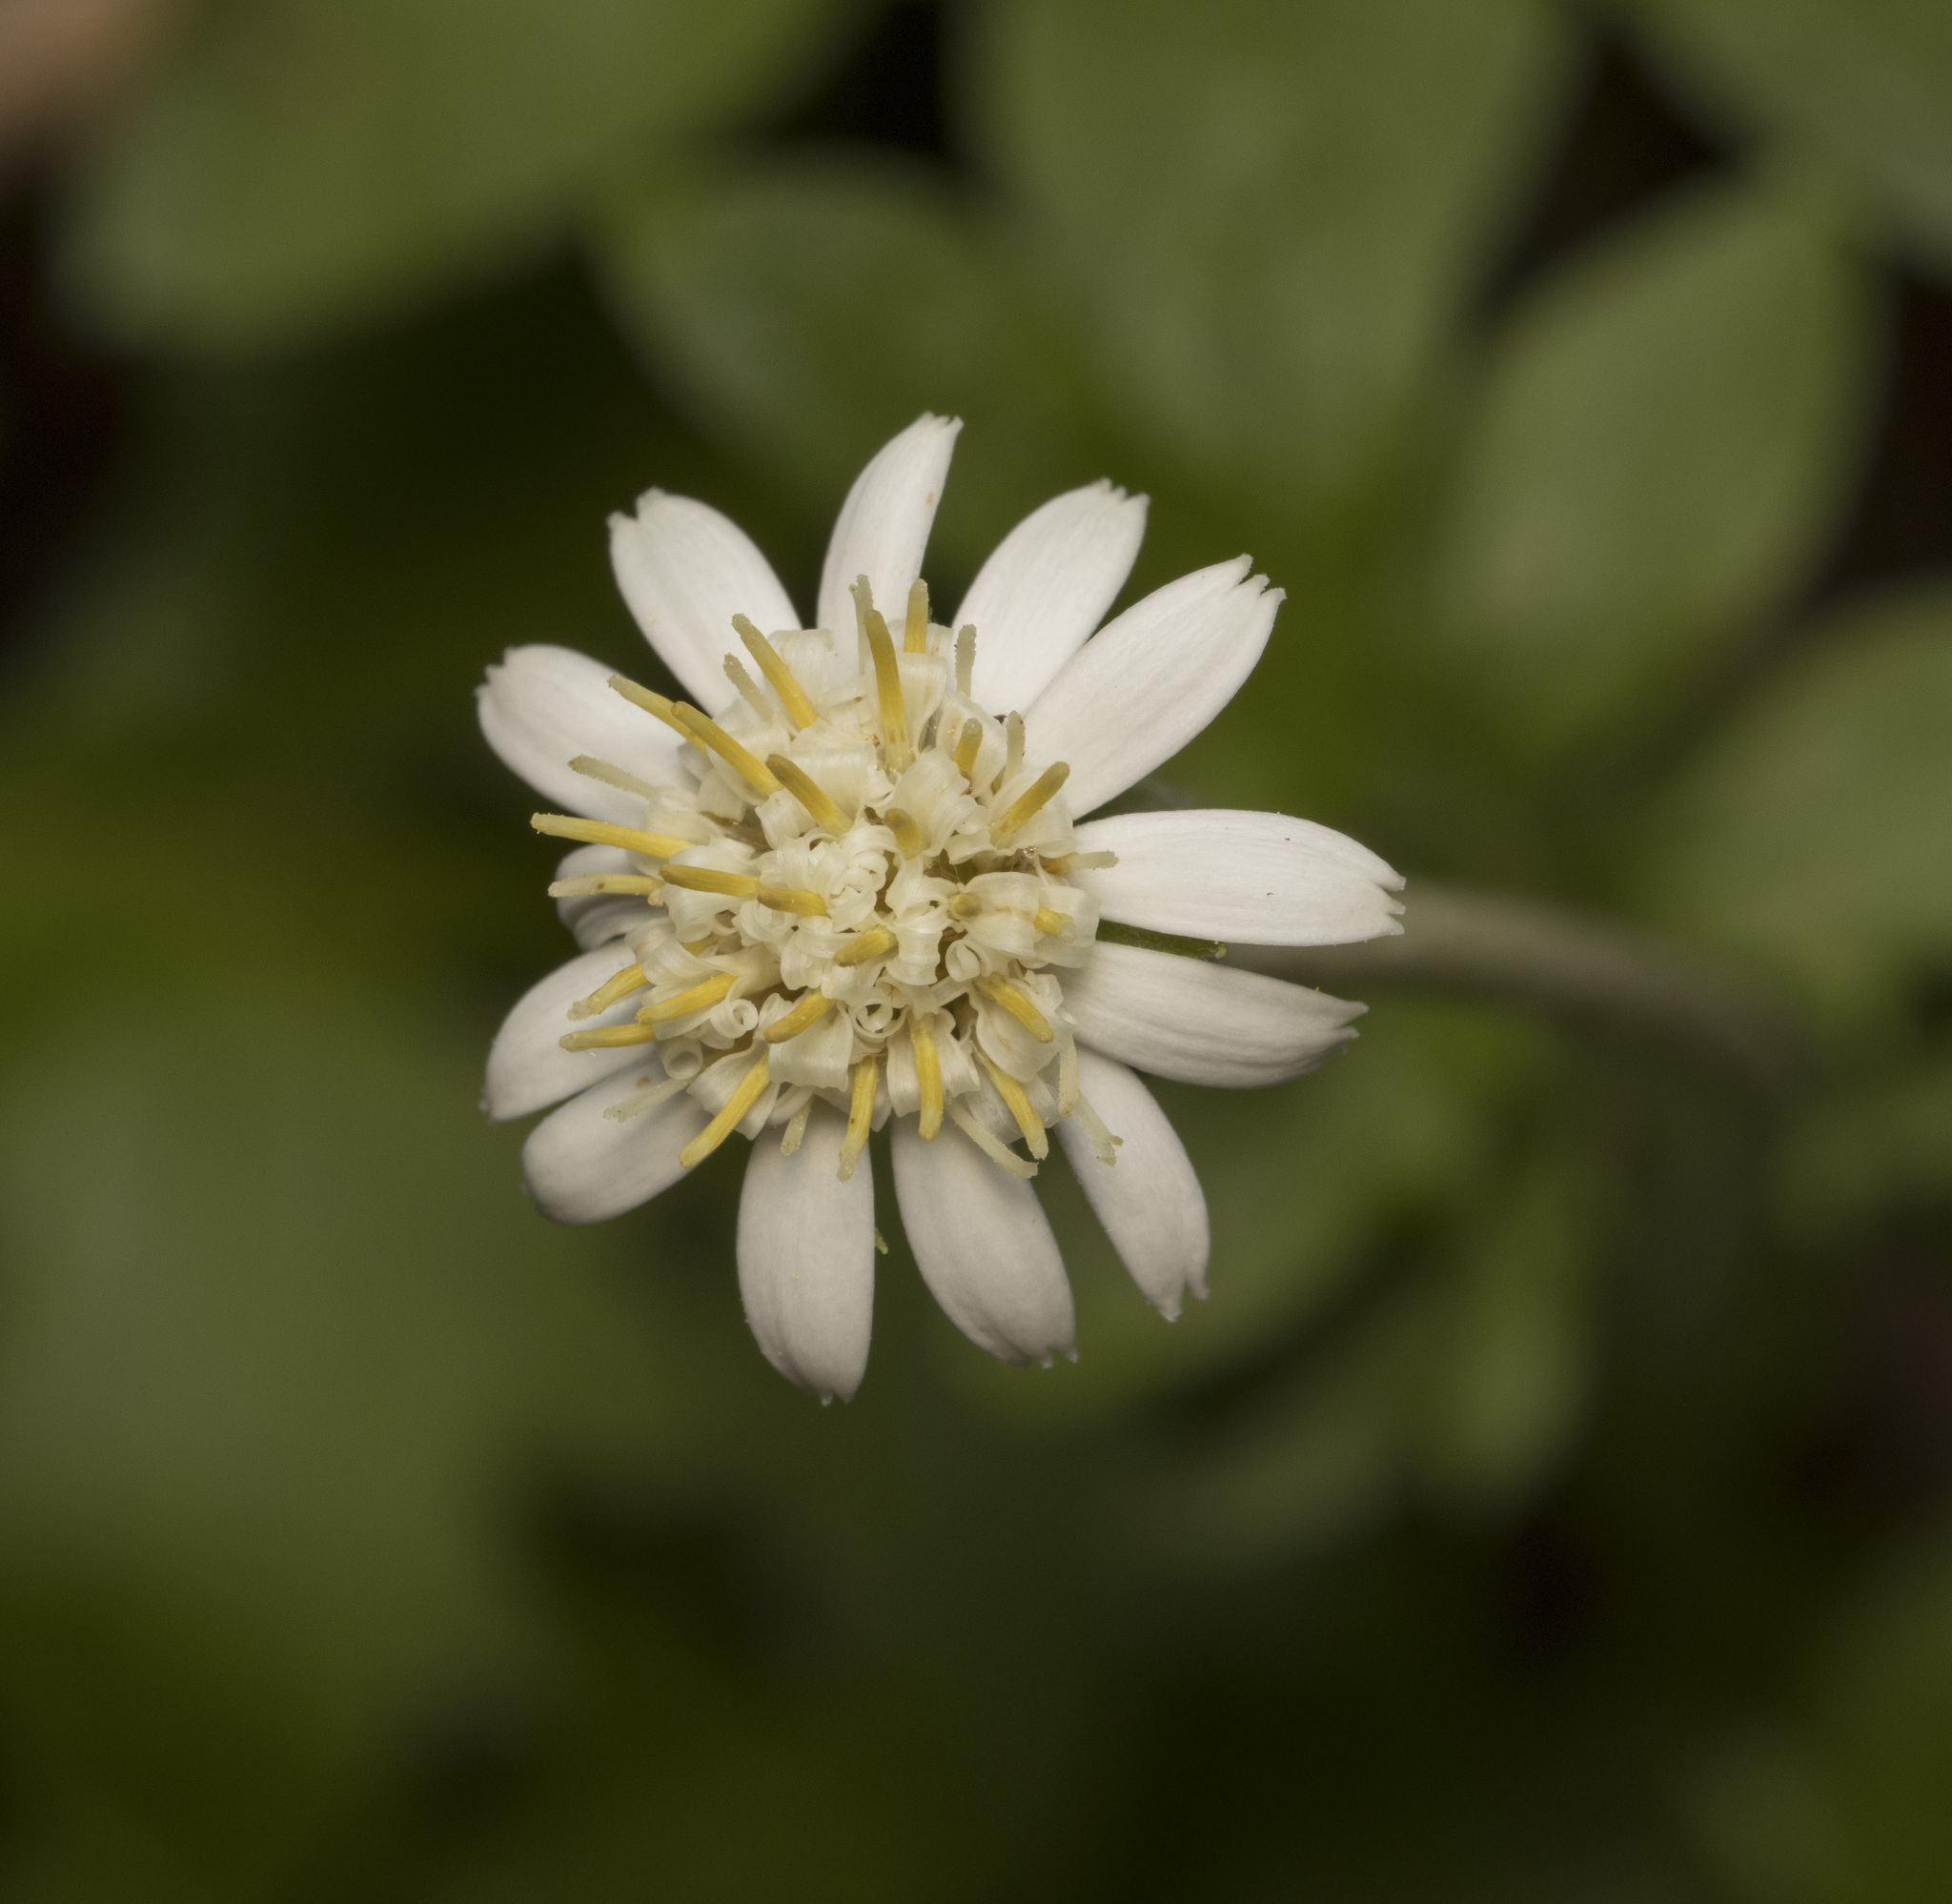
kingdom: Plantae
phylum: Tracheophyta
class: Magnoliopsida
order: Asterales
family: Asteraceae
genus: Macrachaenium
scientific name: Macrachaenium gracile
